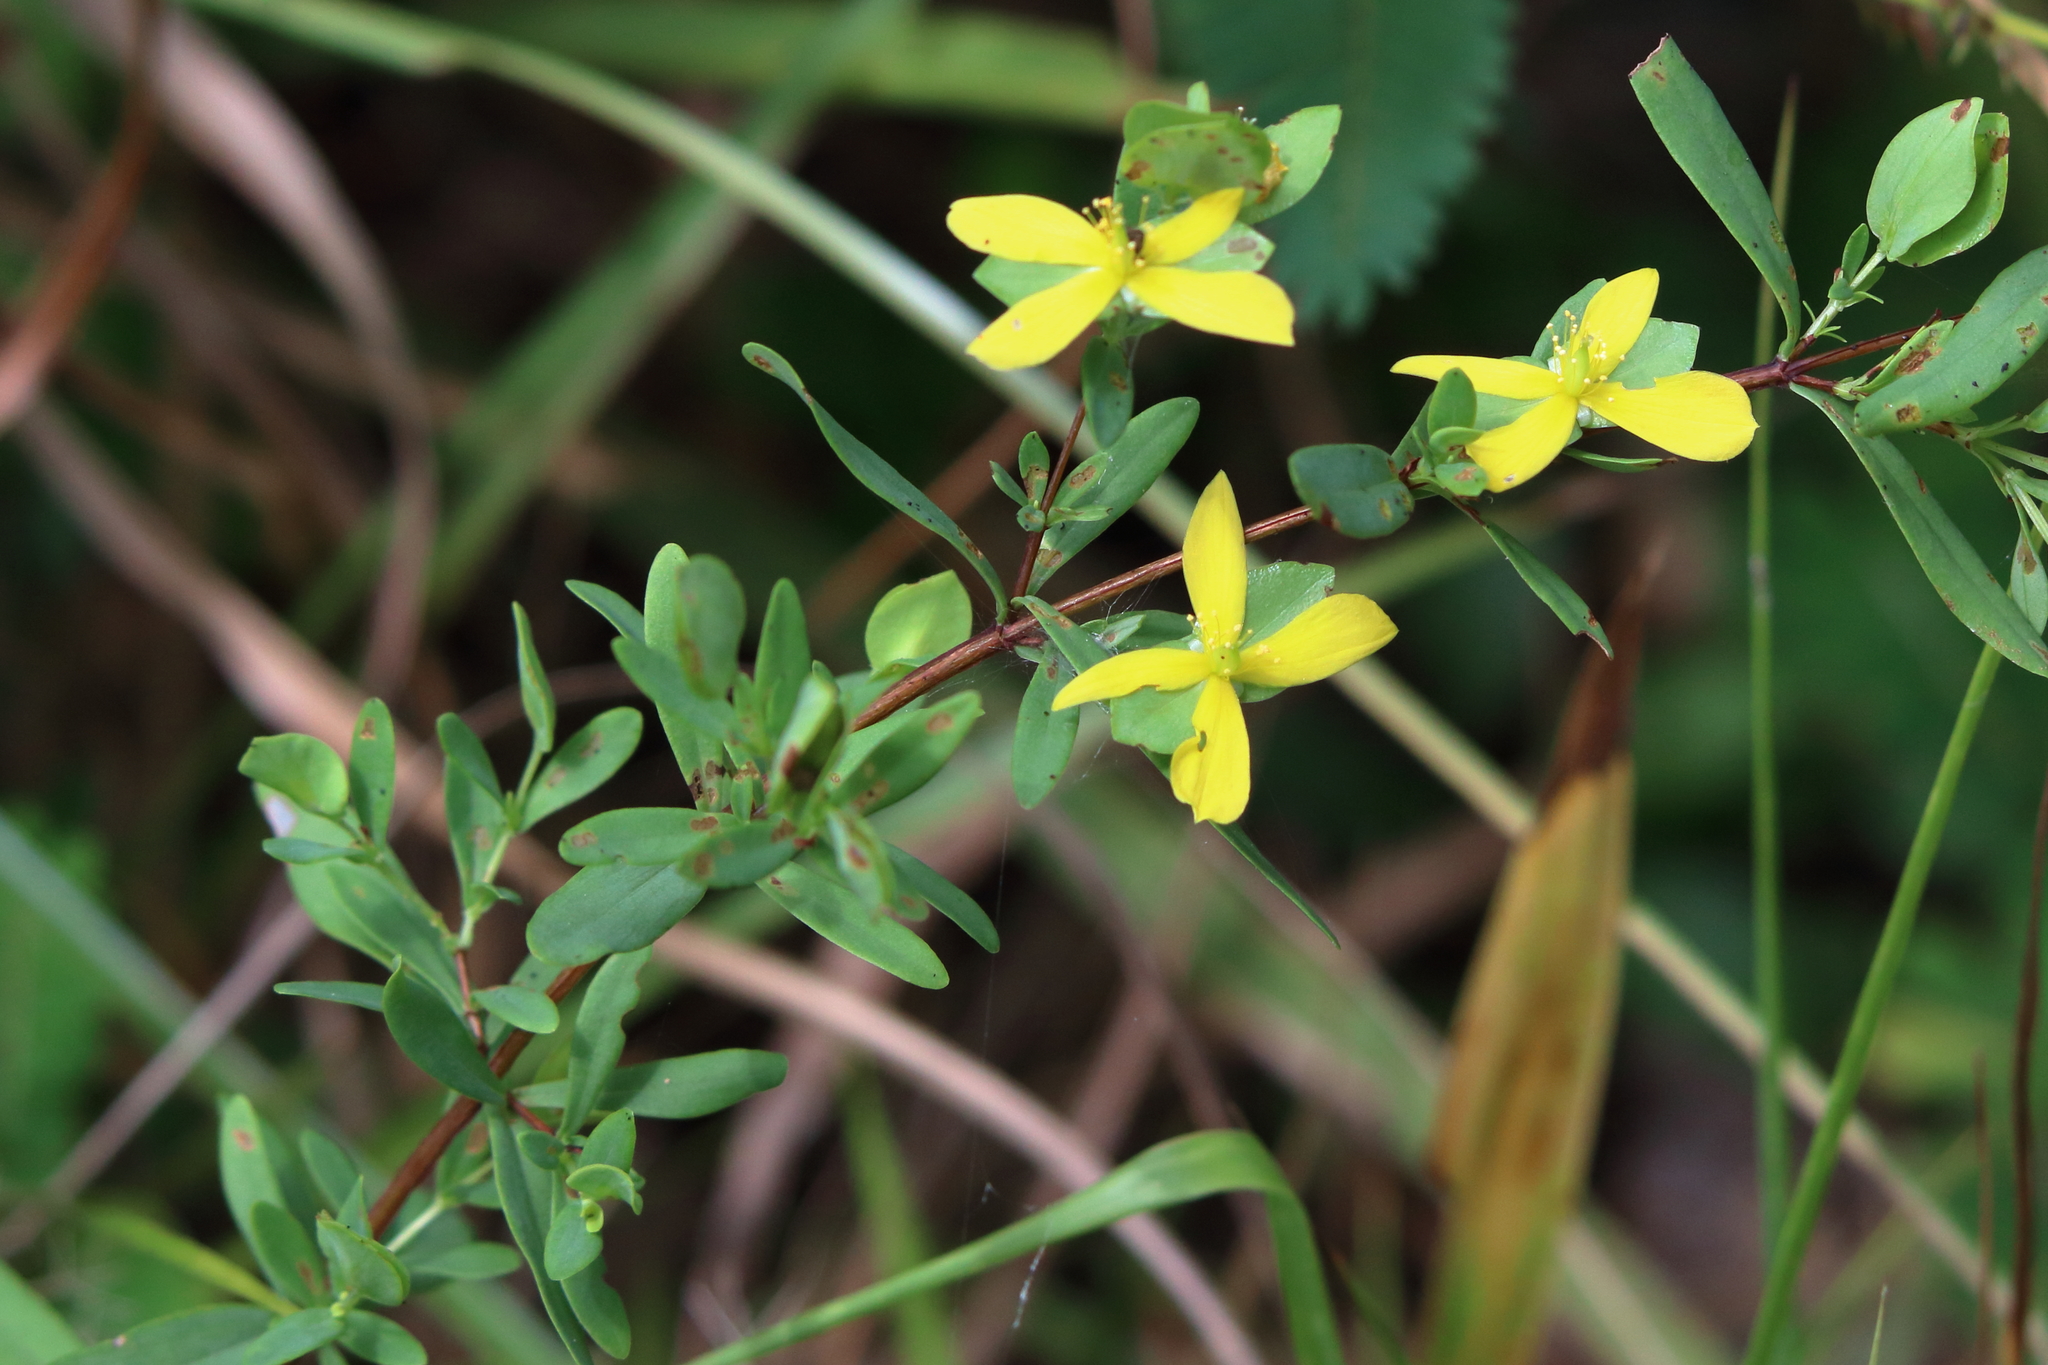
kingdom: Plantae
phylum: Tracheophyta
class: Magnoliopsida
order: Malpighiales
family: Hypericaceae
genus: Hypericum
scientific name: Hypericum hypericoides
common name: St. andrew's cross
